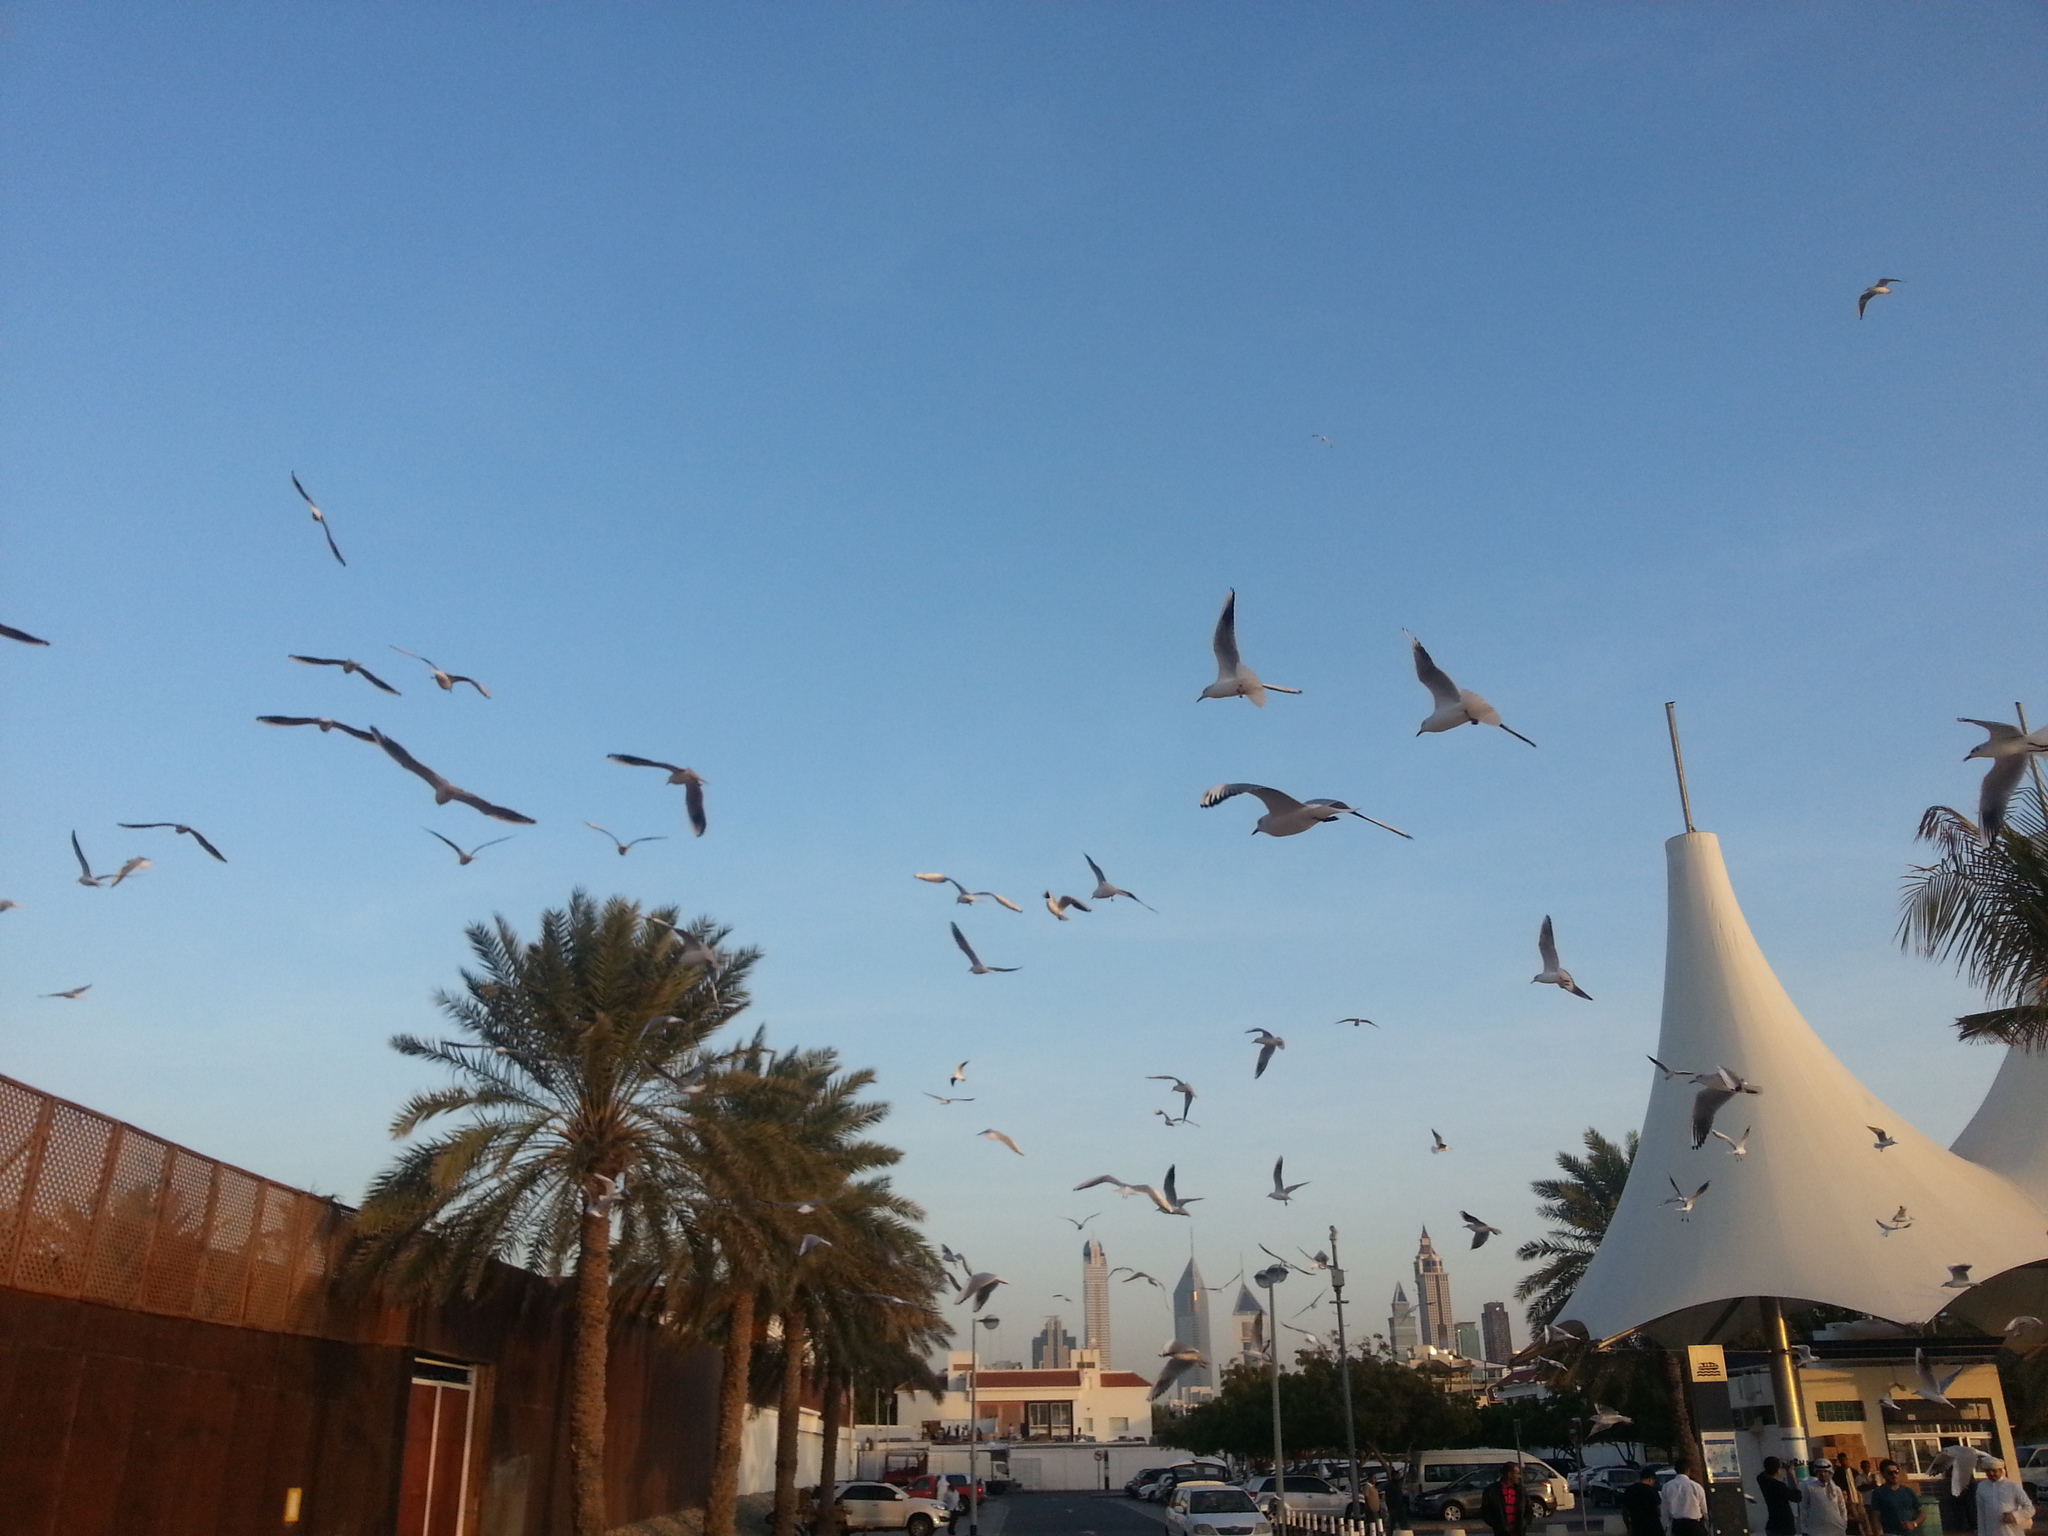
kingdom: Animalia
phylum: Chordata
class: Aves
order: Charadriiformes
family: Laridae
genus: Chroicocephalus
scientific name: Chroicocephalus ridibundus
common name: Black-headed gull
